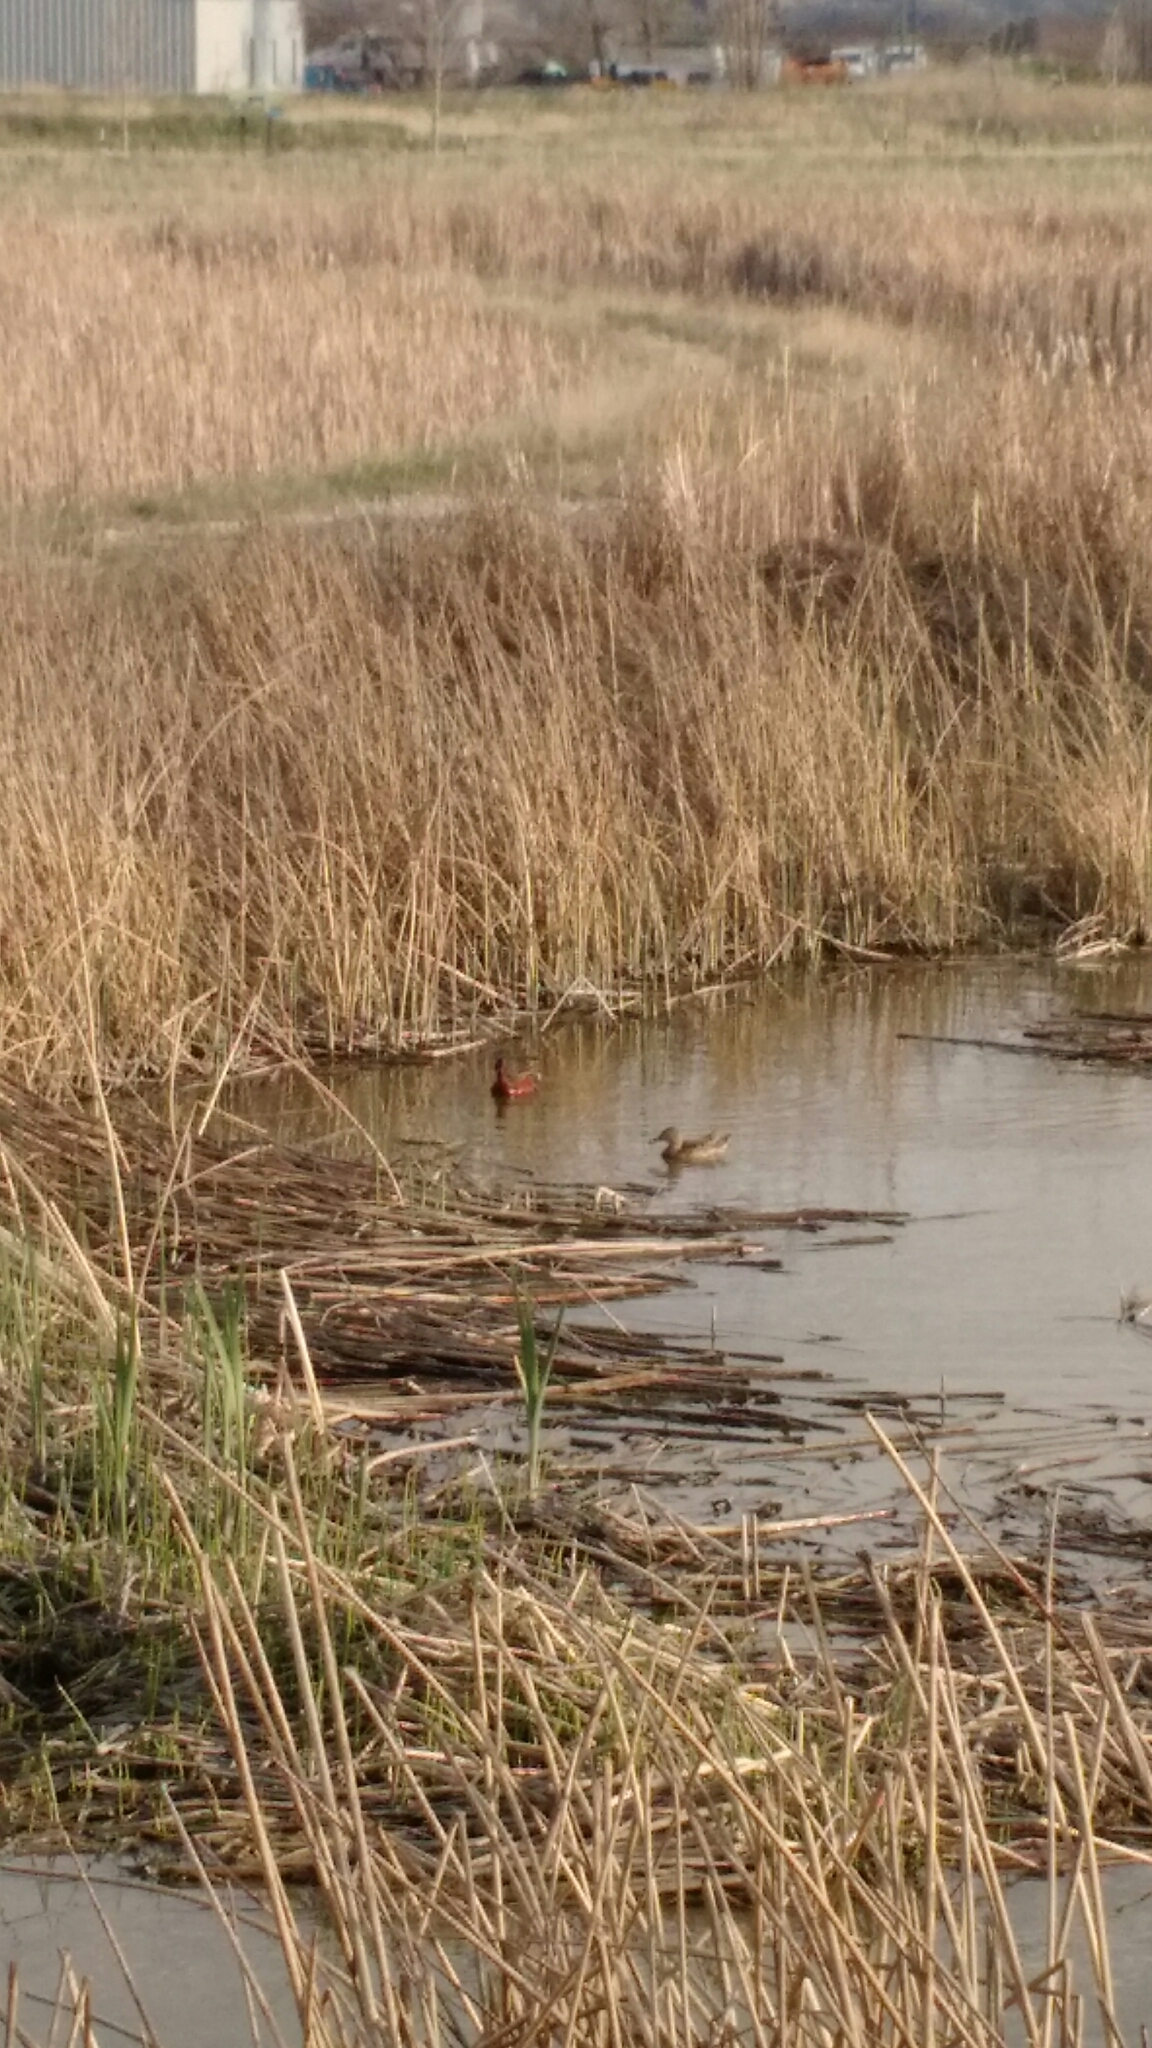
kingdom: Animalia
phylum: Chordata
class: Aves
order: Anseriformes
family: Anatidae
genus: Spatula
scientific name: Spatula cyanoptera
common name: Cinnamon teal
